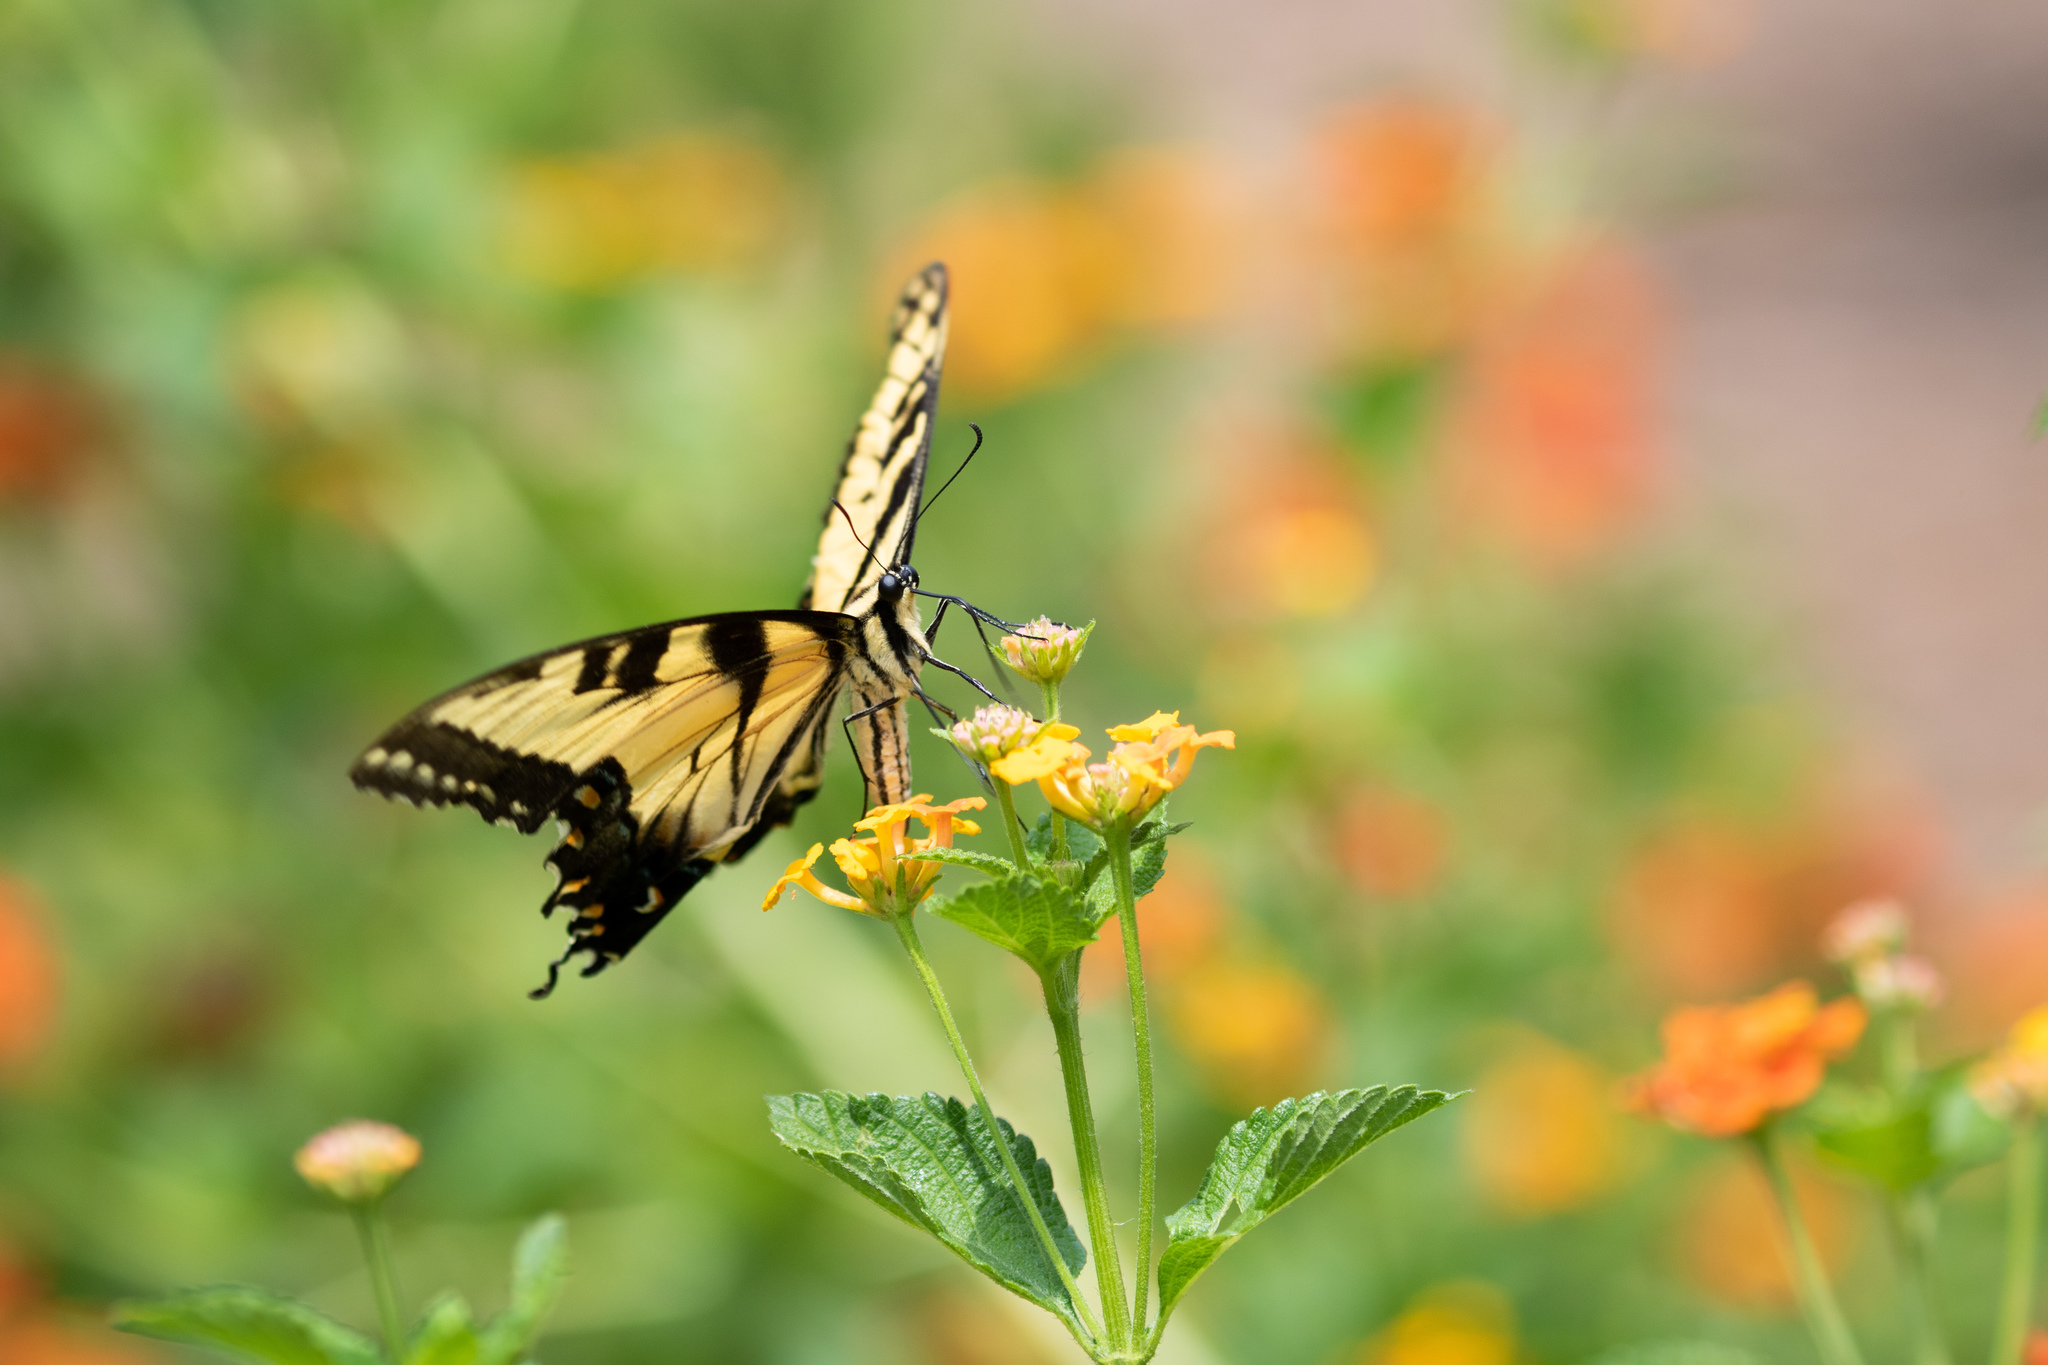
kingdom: Animalia
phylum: Arthropoda
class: Insecta
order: Lepidoptera
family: Papilionidae
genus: Papilio
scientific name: Papilio glaucus
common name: Tiger swallowtail
